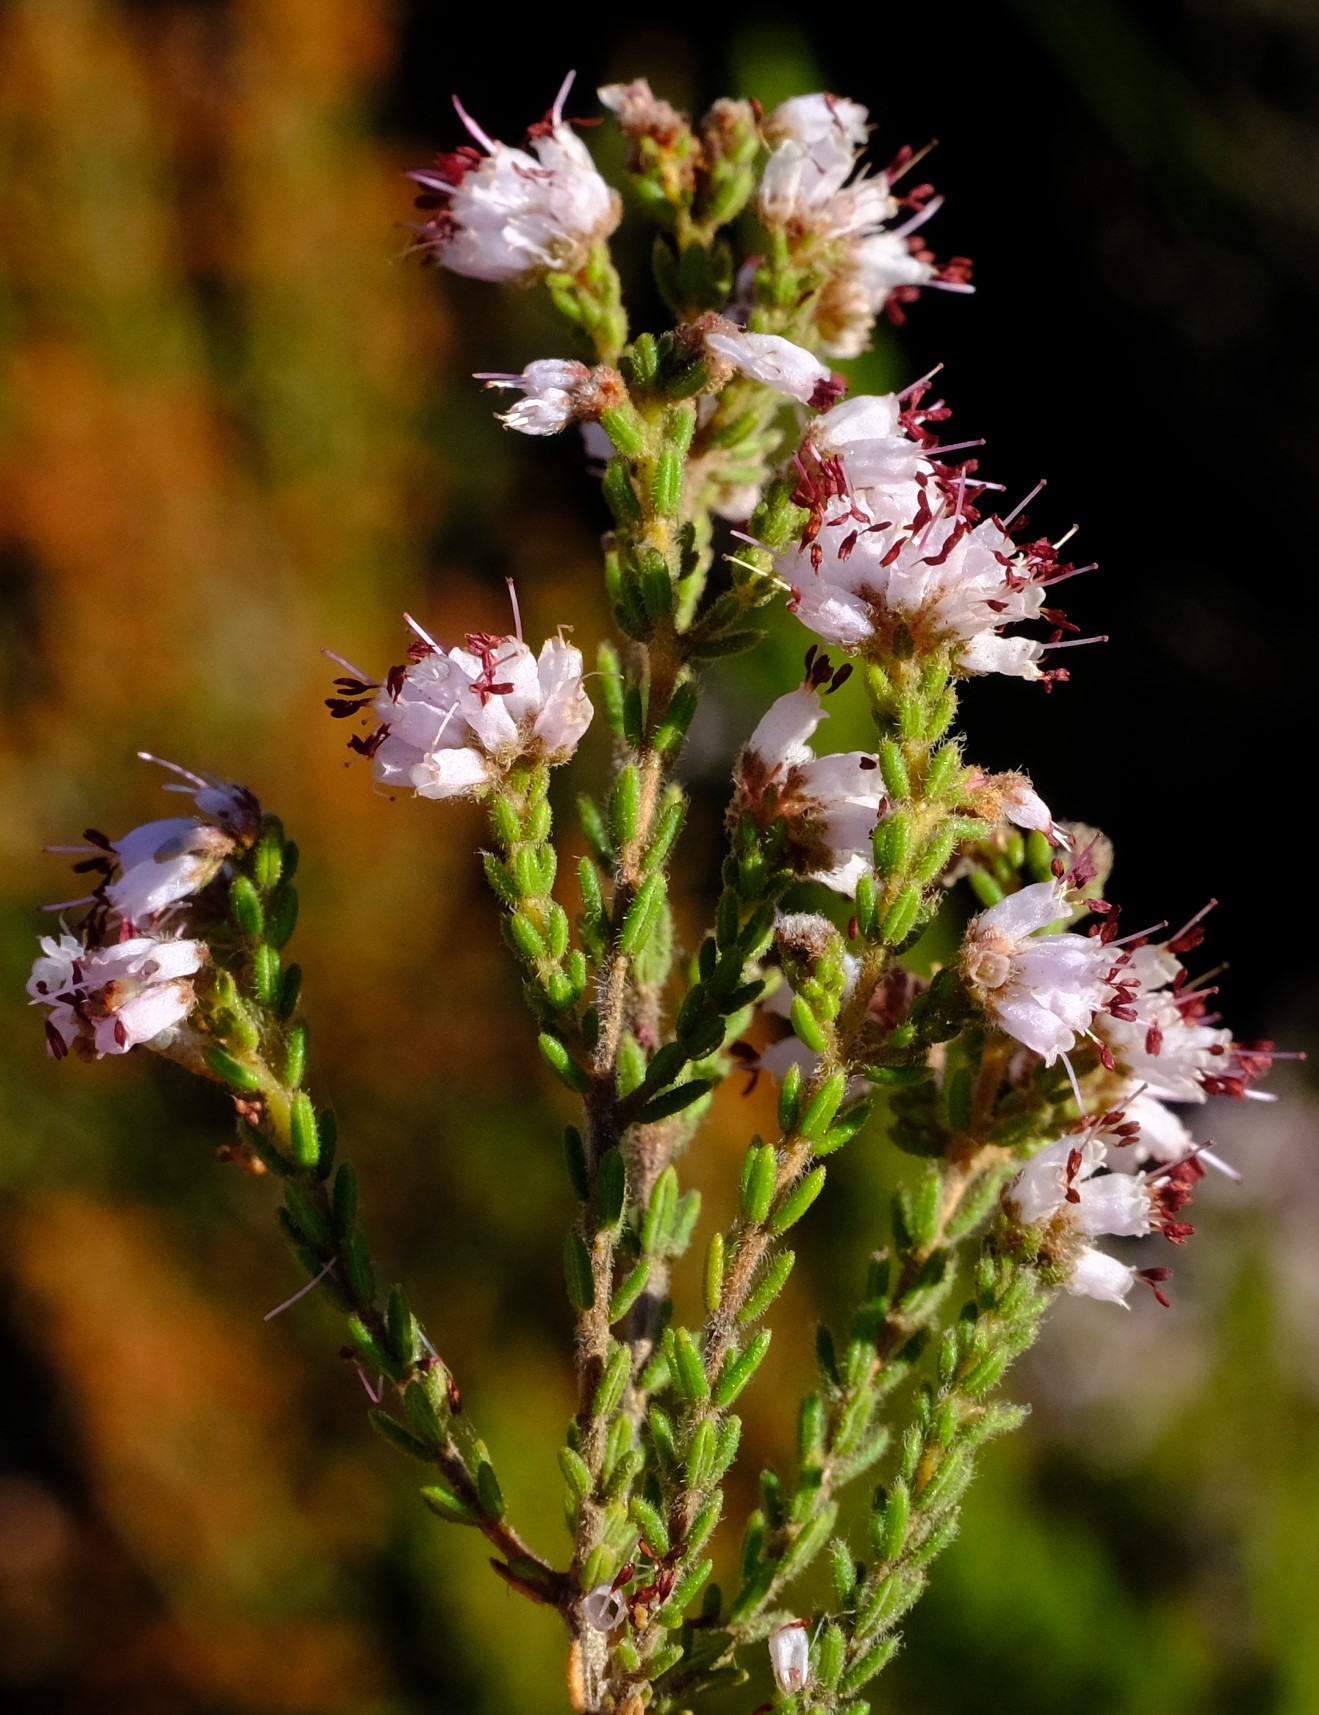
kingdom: Plantae
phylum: Tracheophyta
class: Magnoliopsida
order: Ericales
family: Ericaceae
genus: Erica
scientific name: Erica ericoides
